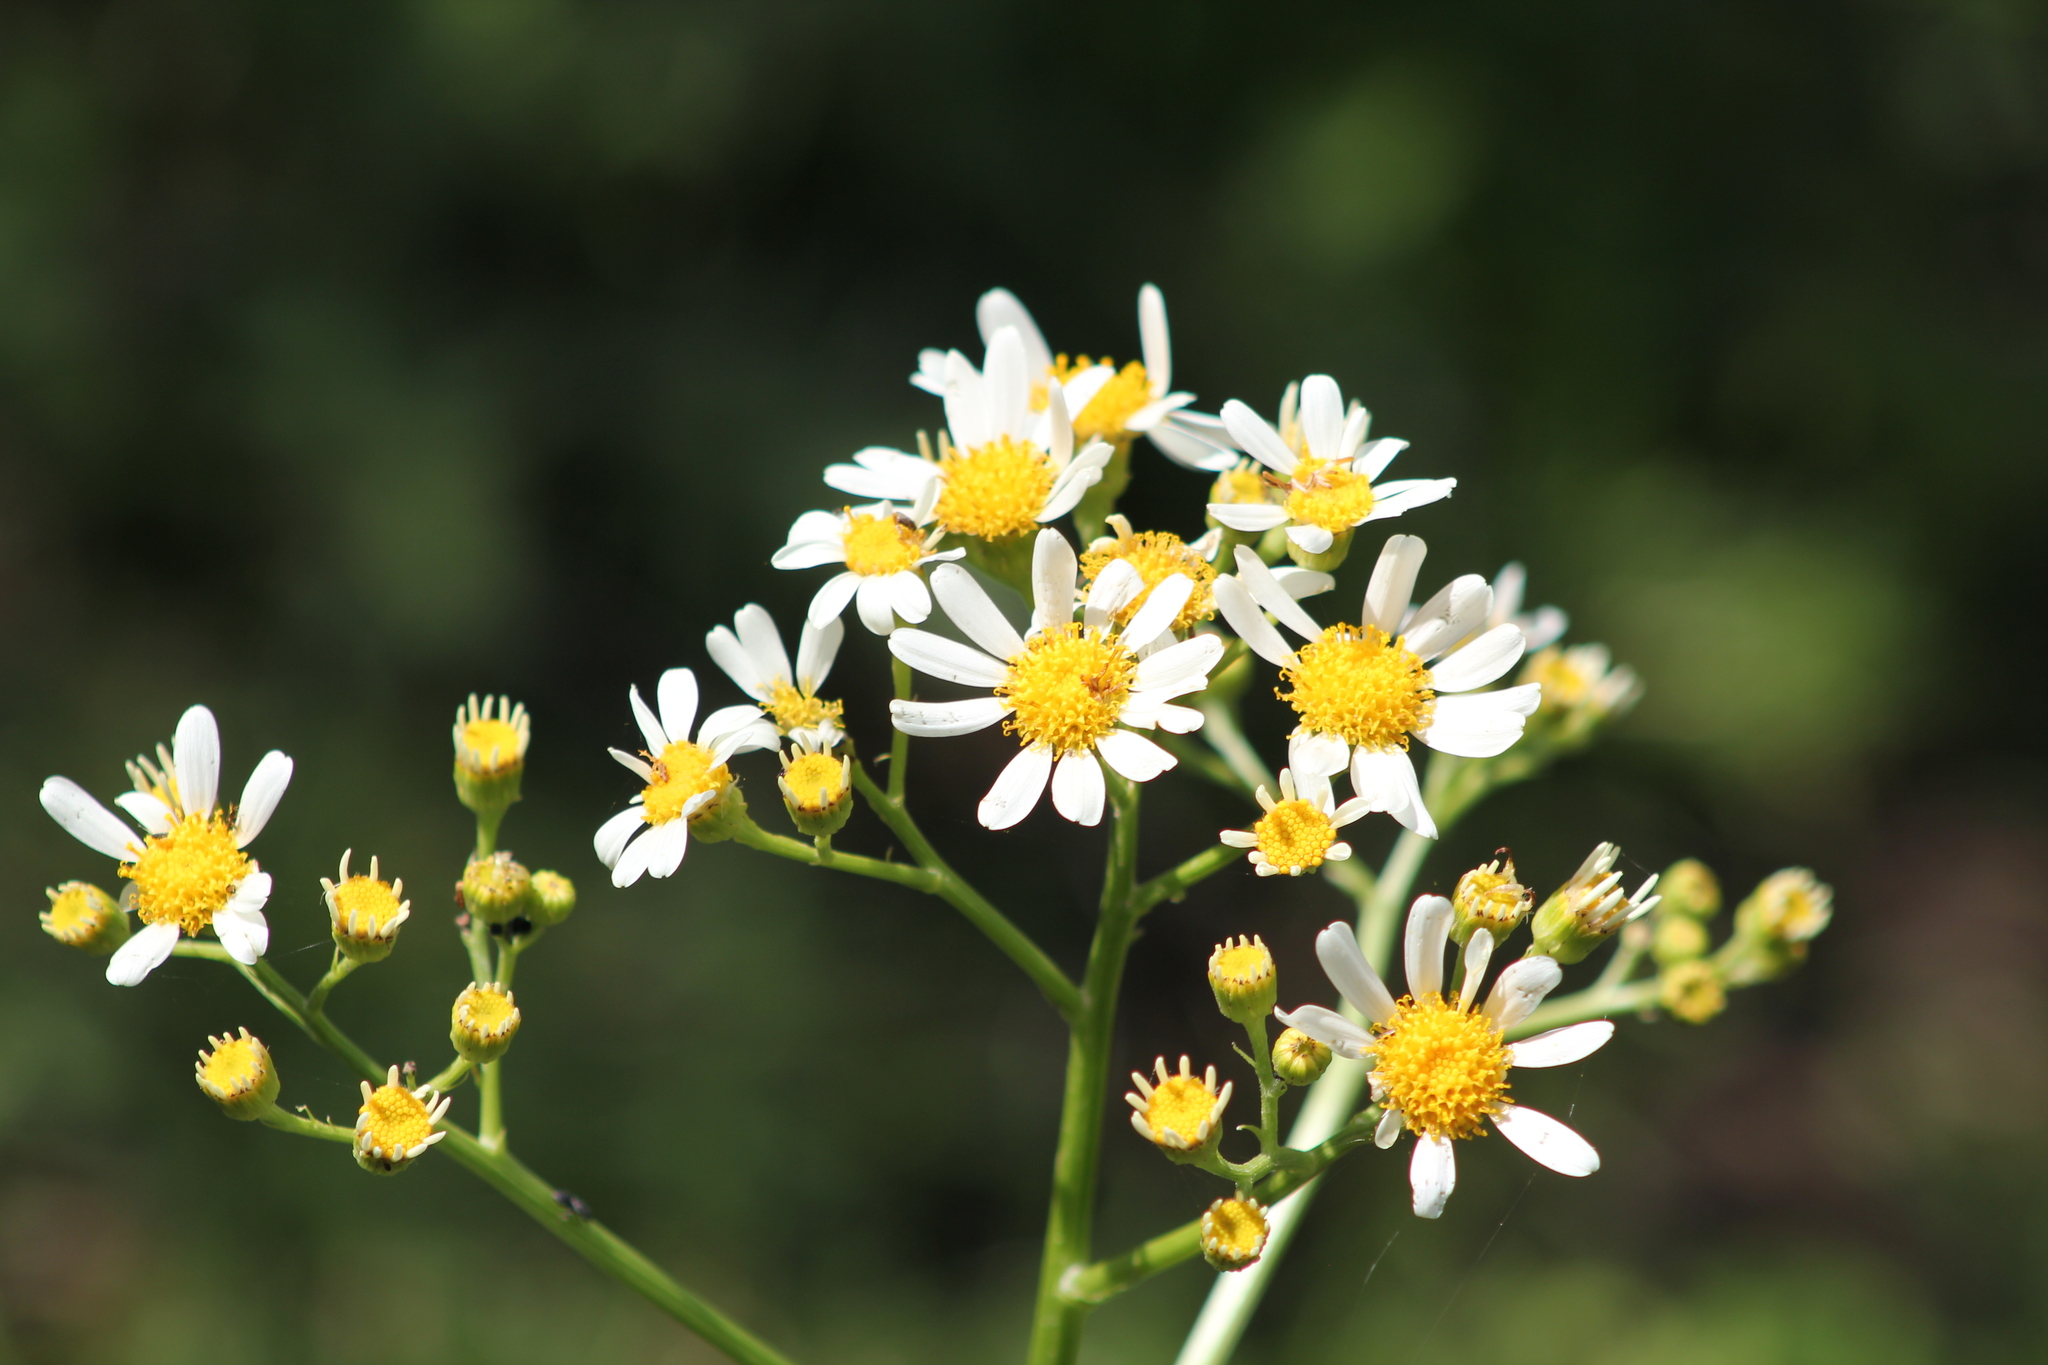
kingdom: Plantae
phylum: Tracheophyta
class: Magnoliopsida
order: Asterales
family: Asteraceae
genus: Senecio
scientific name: Senecio bonariensis
